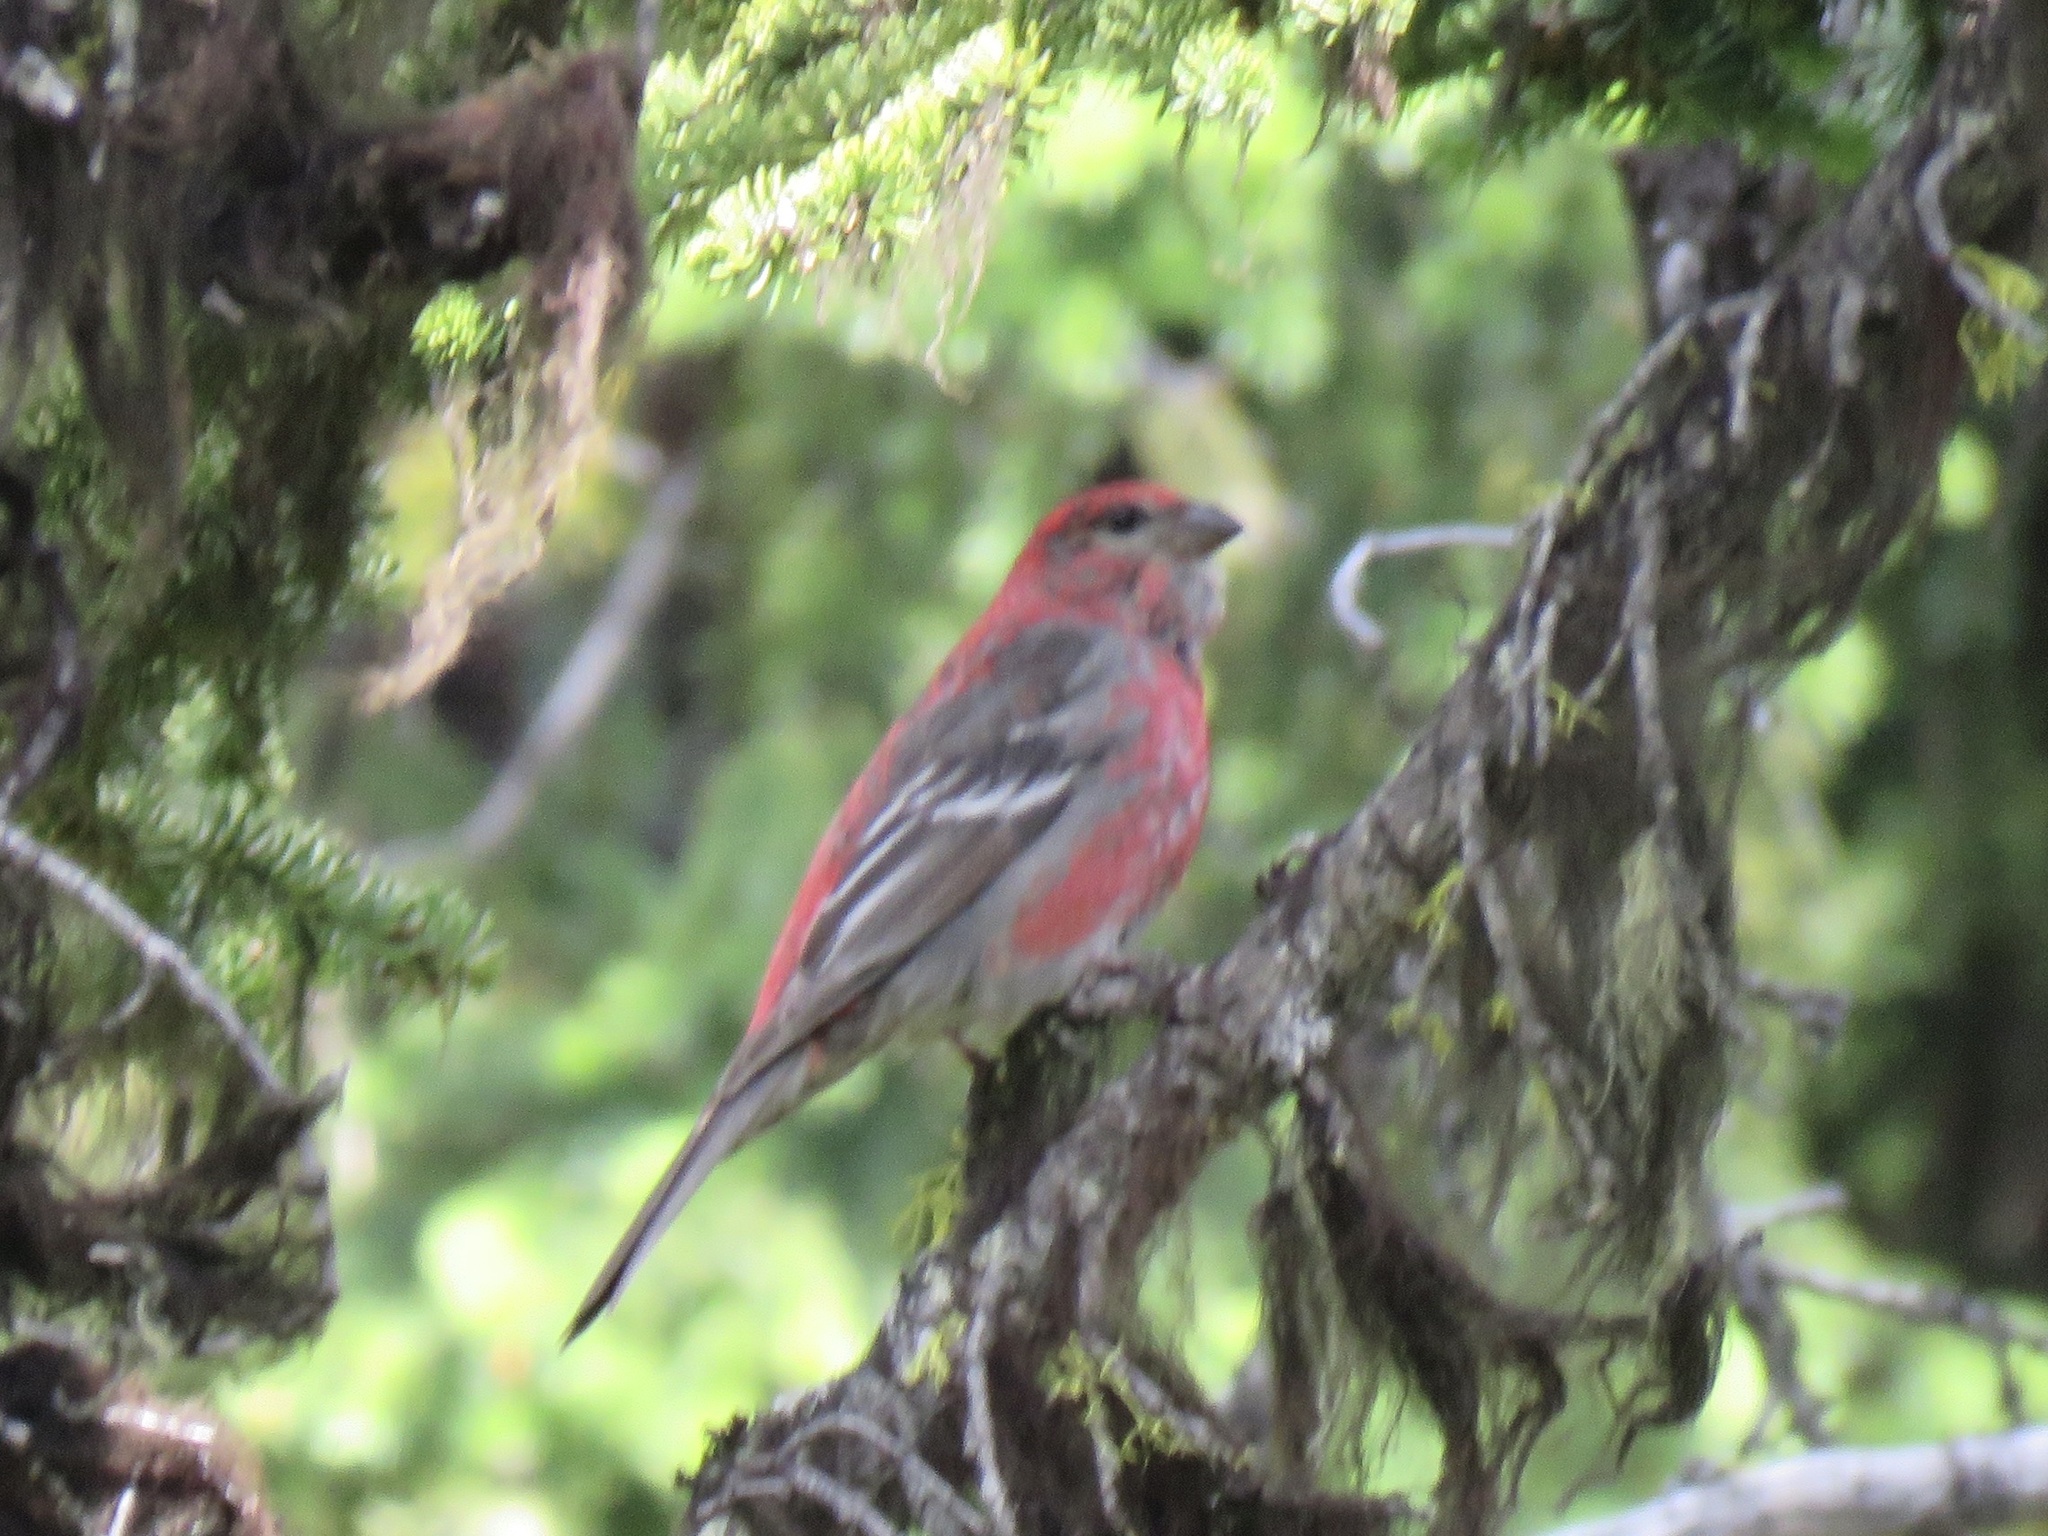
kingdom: Animalia
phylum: Chordata
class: Aves
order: Passeriformes
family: Fringillidae
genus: Pinicola
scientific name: Pinicola enucleator
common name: Pine grosbeak
